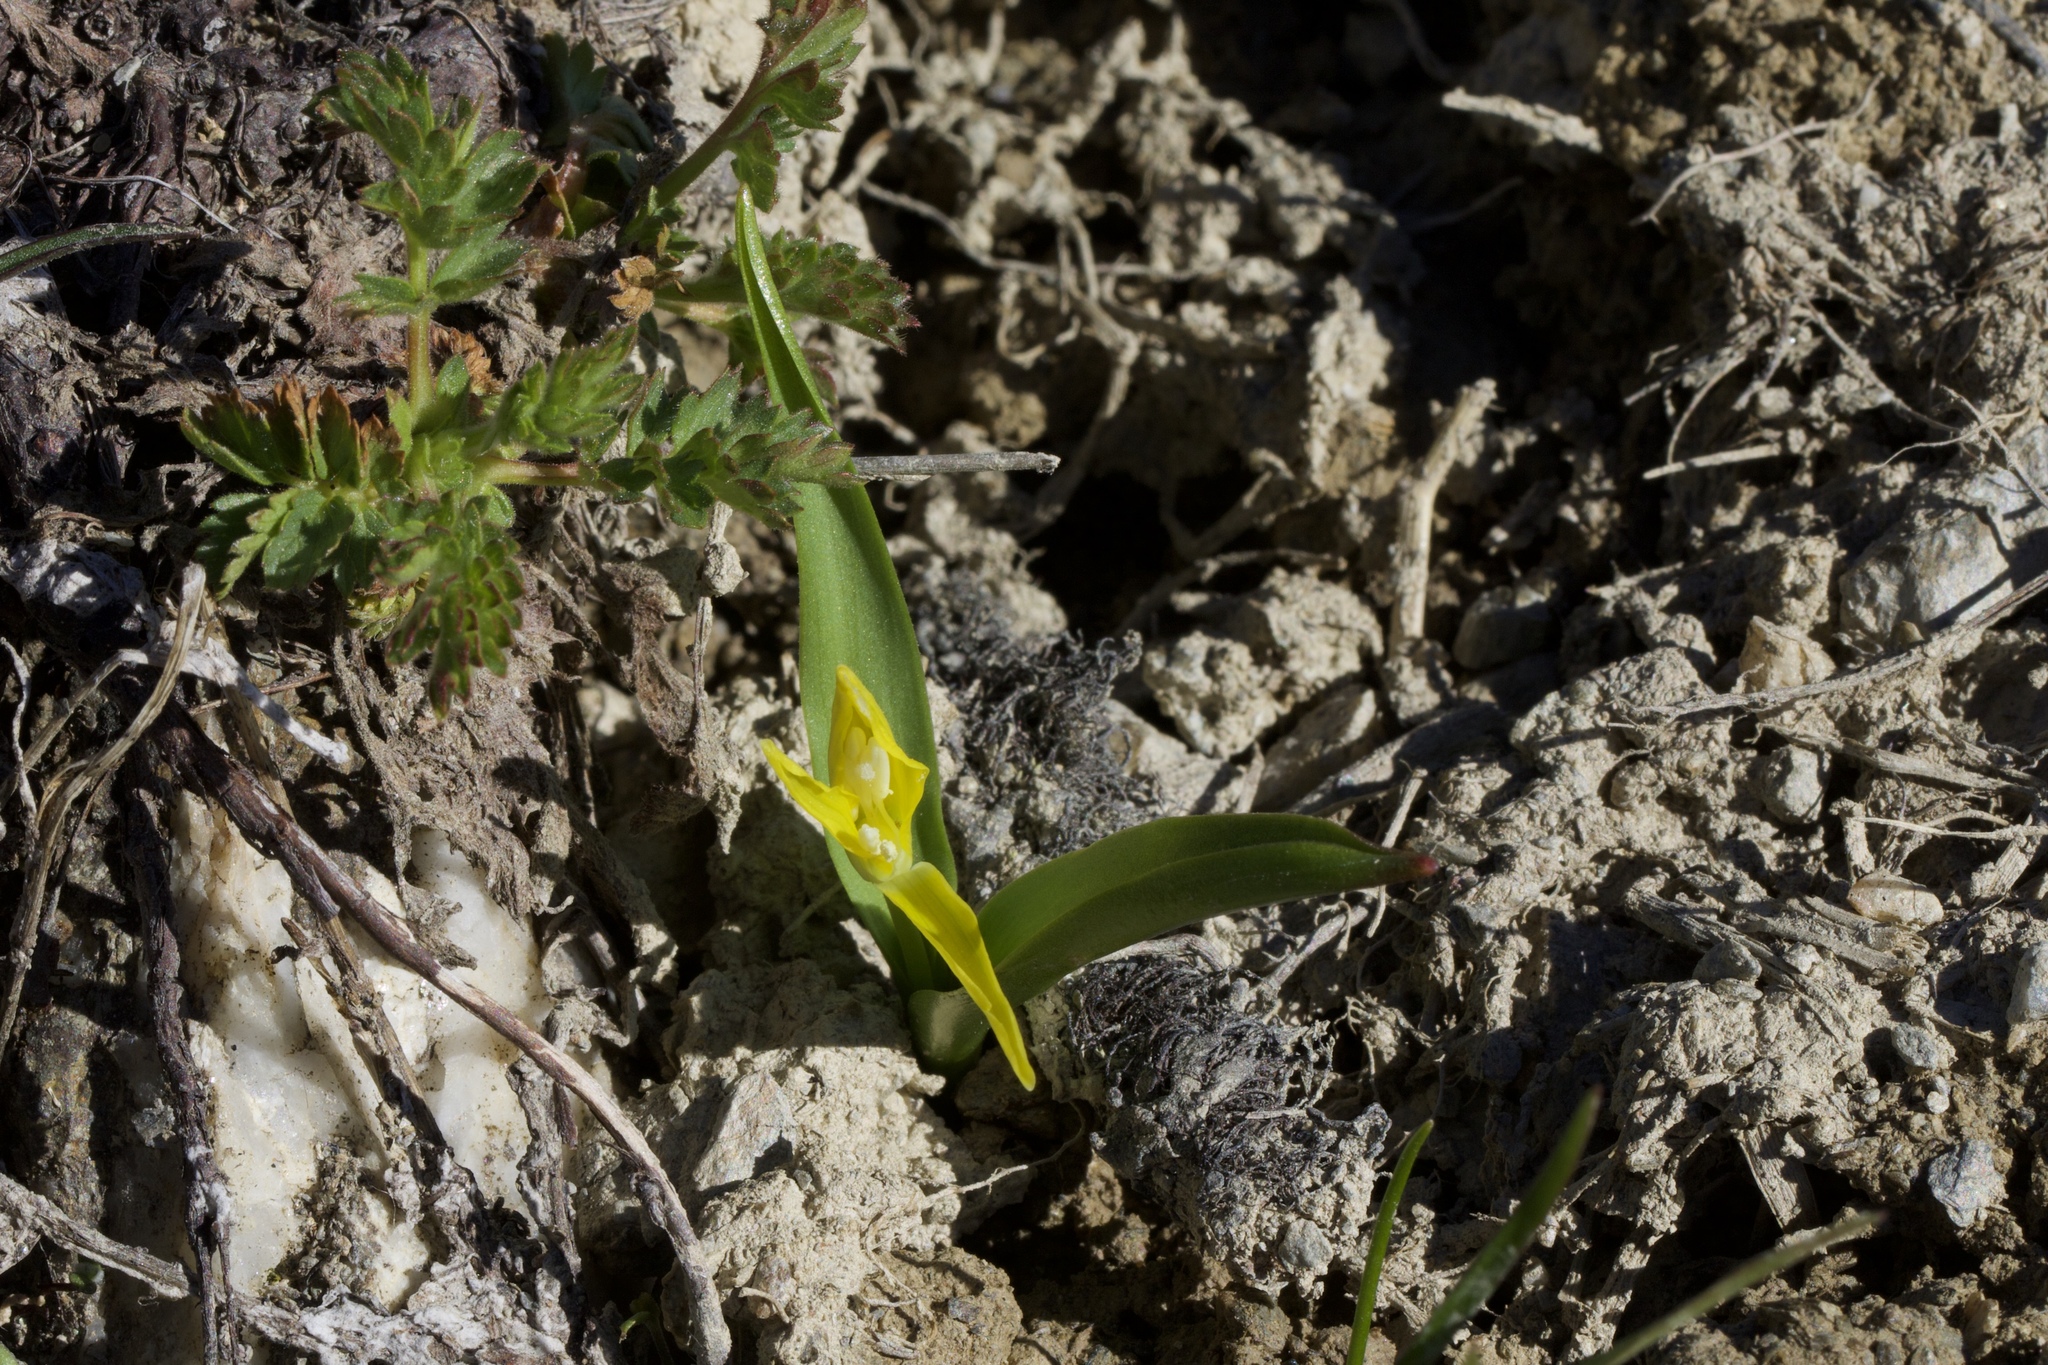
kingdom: Plantae
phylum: Tracheophyta
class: Liliopsida
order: Liliales
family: Liliaceae
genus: Erythronium
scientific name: Erythronium grandiflorum
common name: Avalanche-lily
